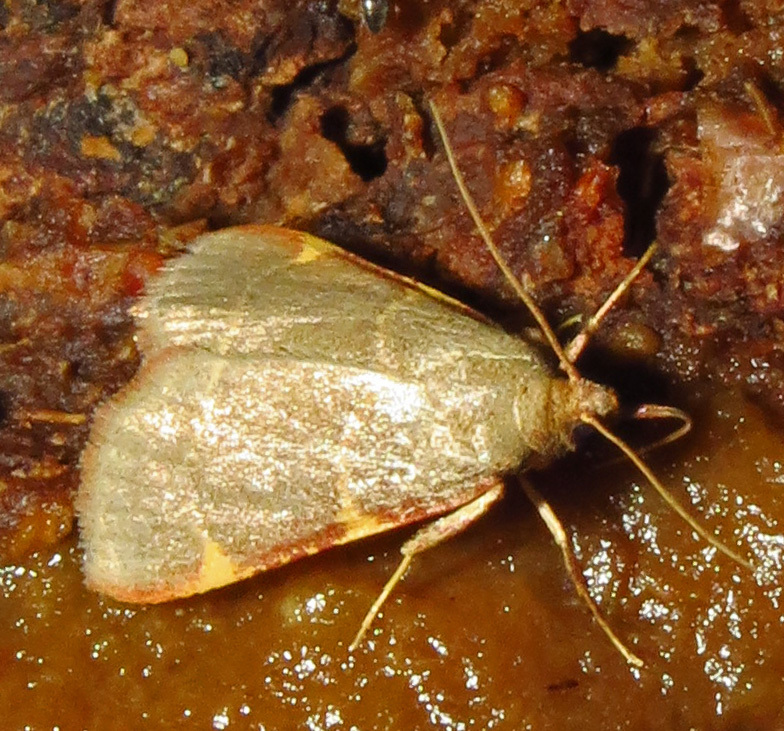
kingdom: Animalia
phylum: Arthropoda
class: Insecta
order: Lepidoptera
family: Pyralidae
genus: Hypsopygia
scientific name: Hypsopygia binodulalis
